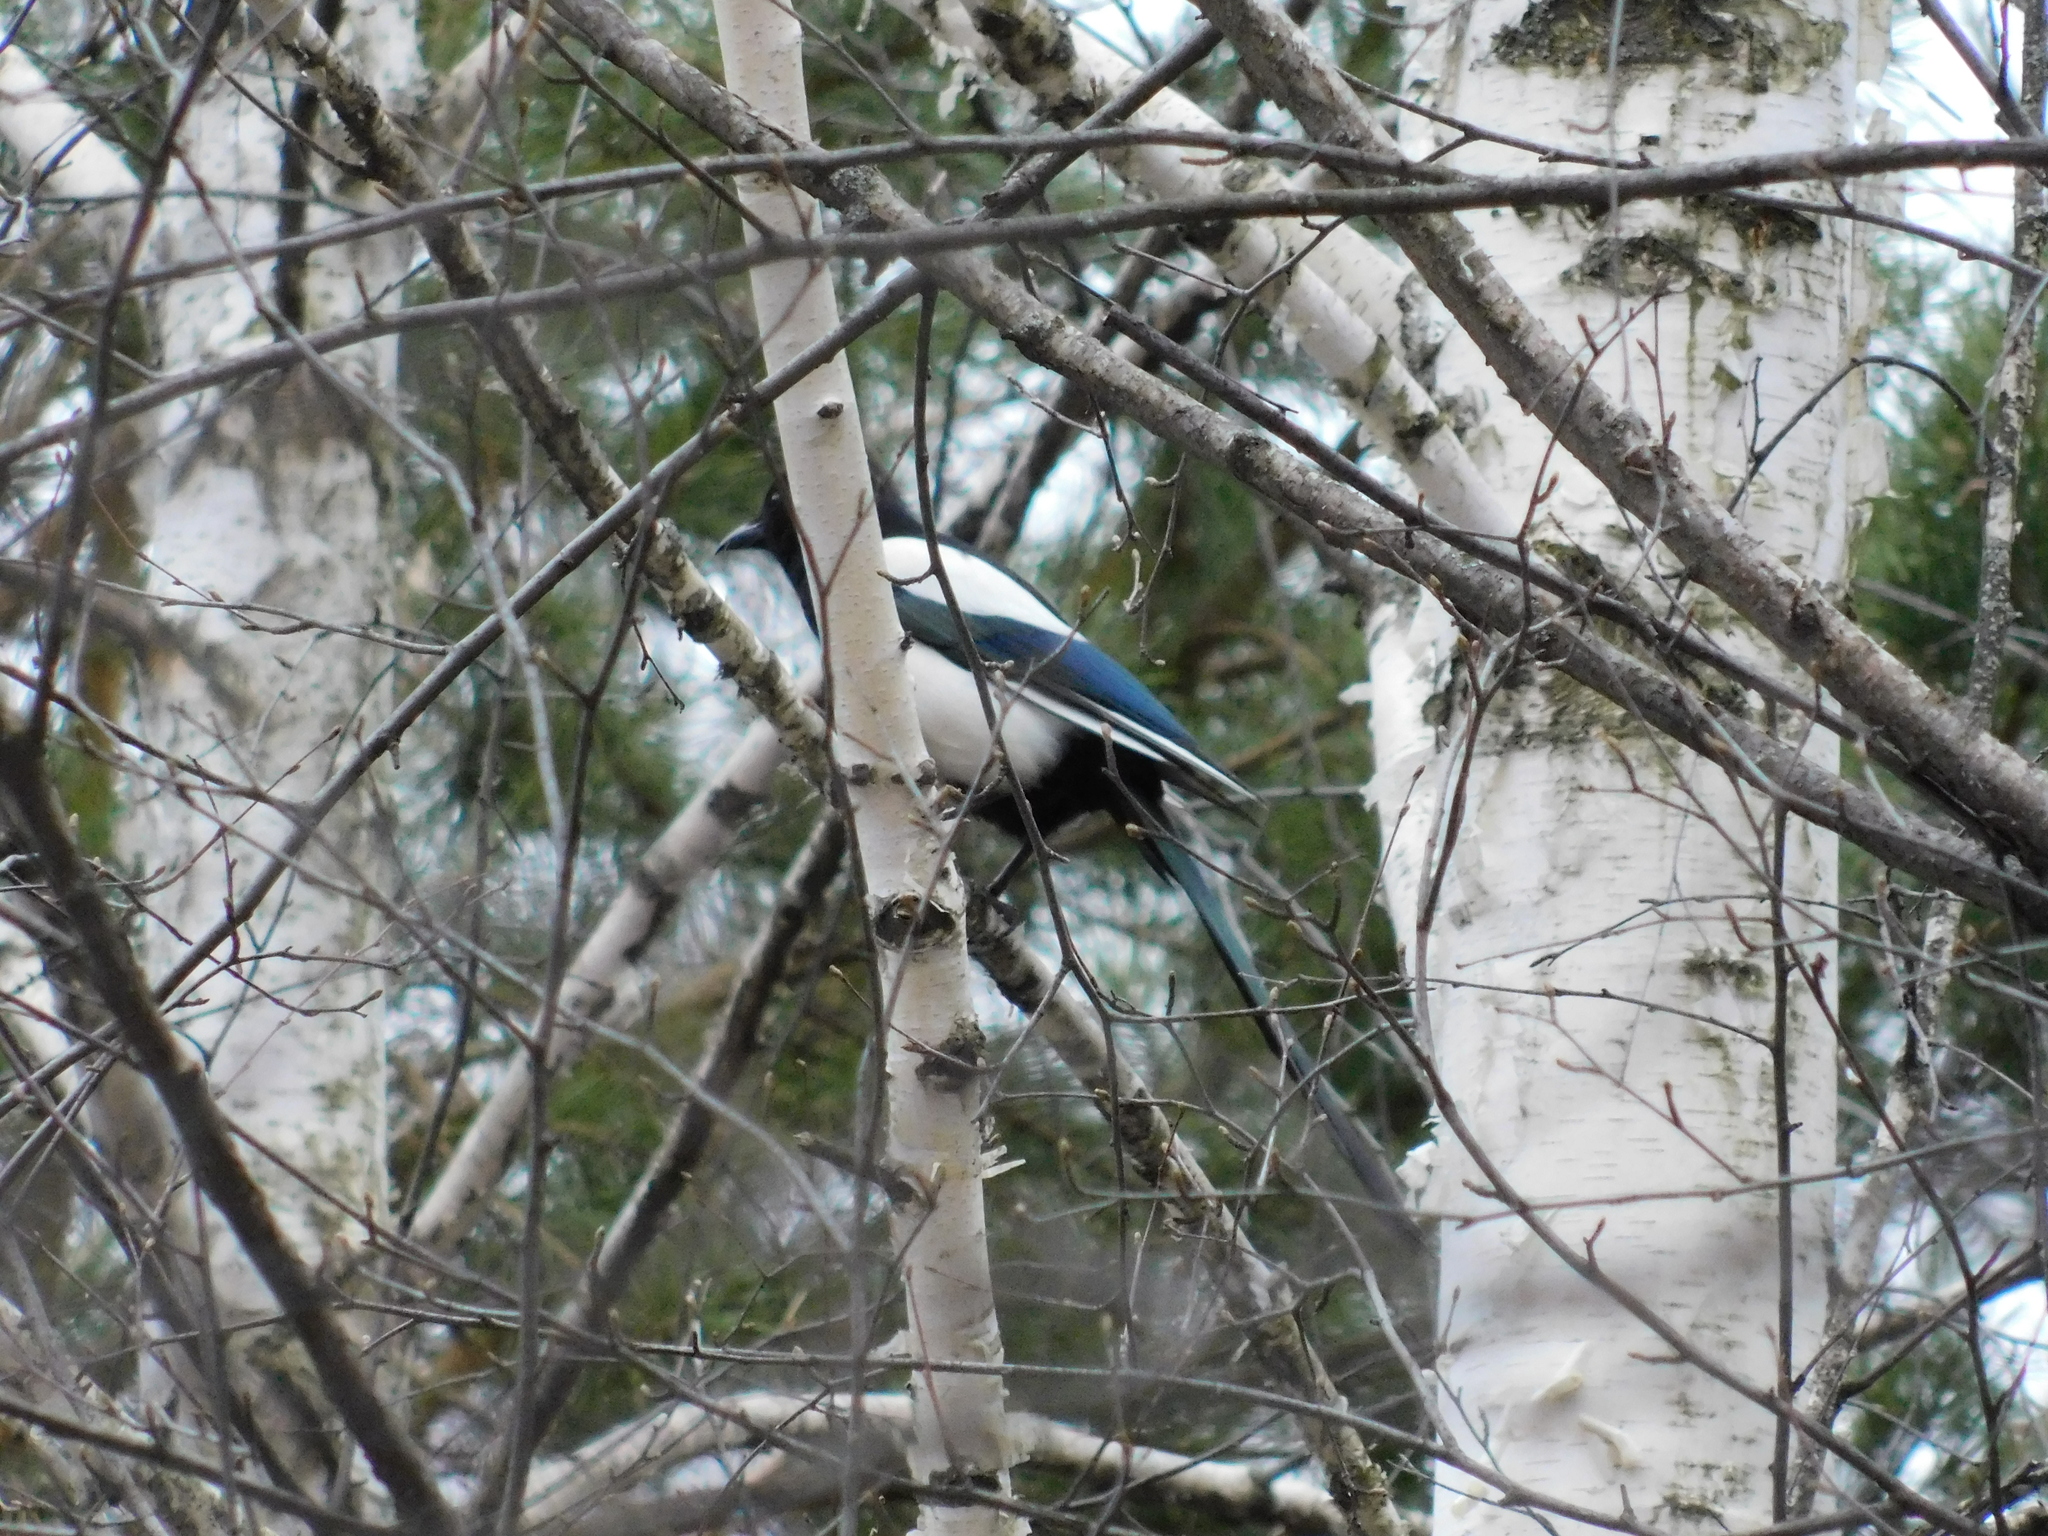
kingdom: Animalia
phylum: Chordata
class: Aves
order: Passeriformes
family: Corvidae
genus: Pica
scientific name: Pica pica
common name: Eurasian magpie
